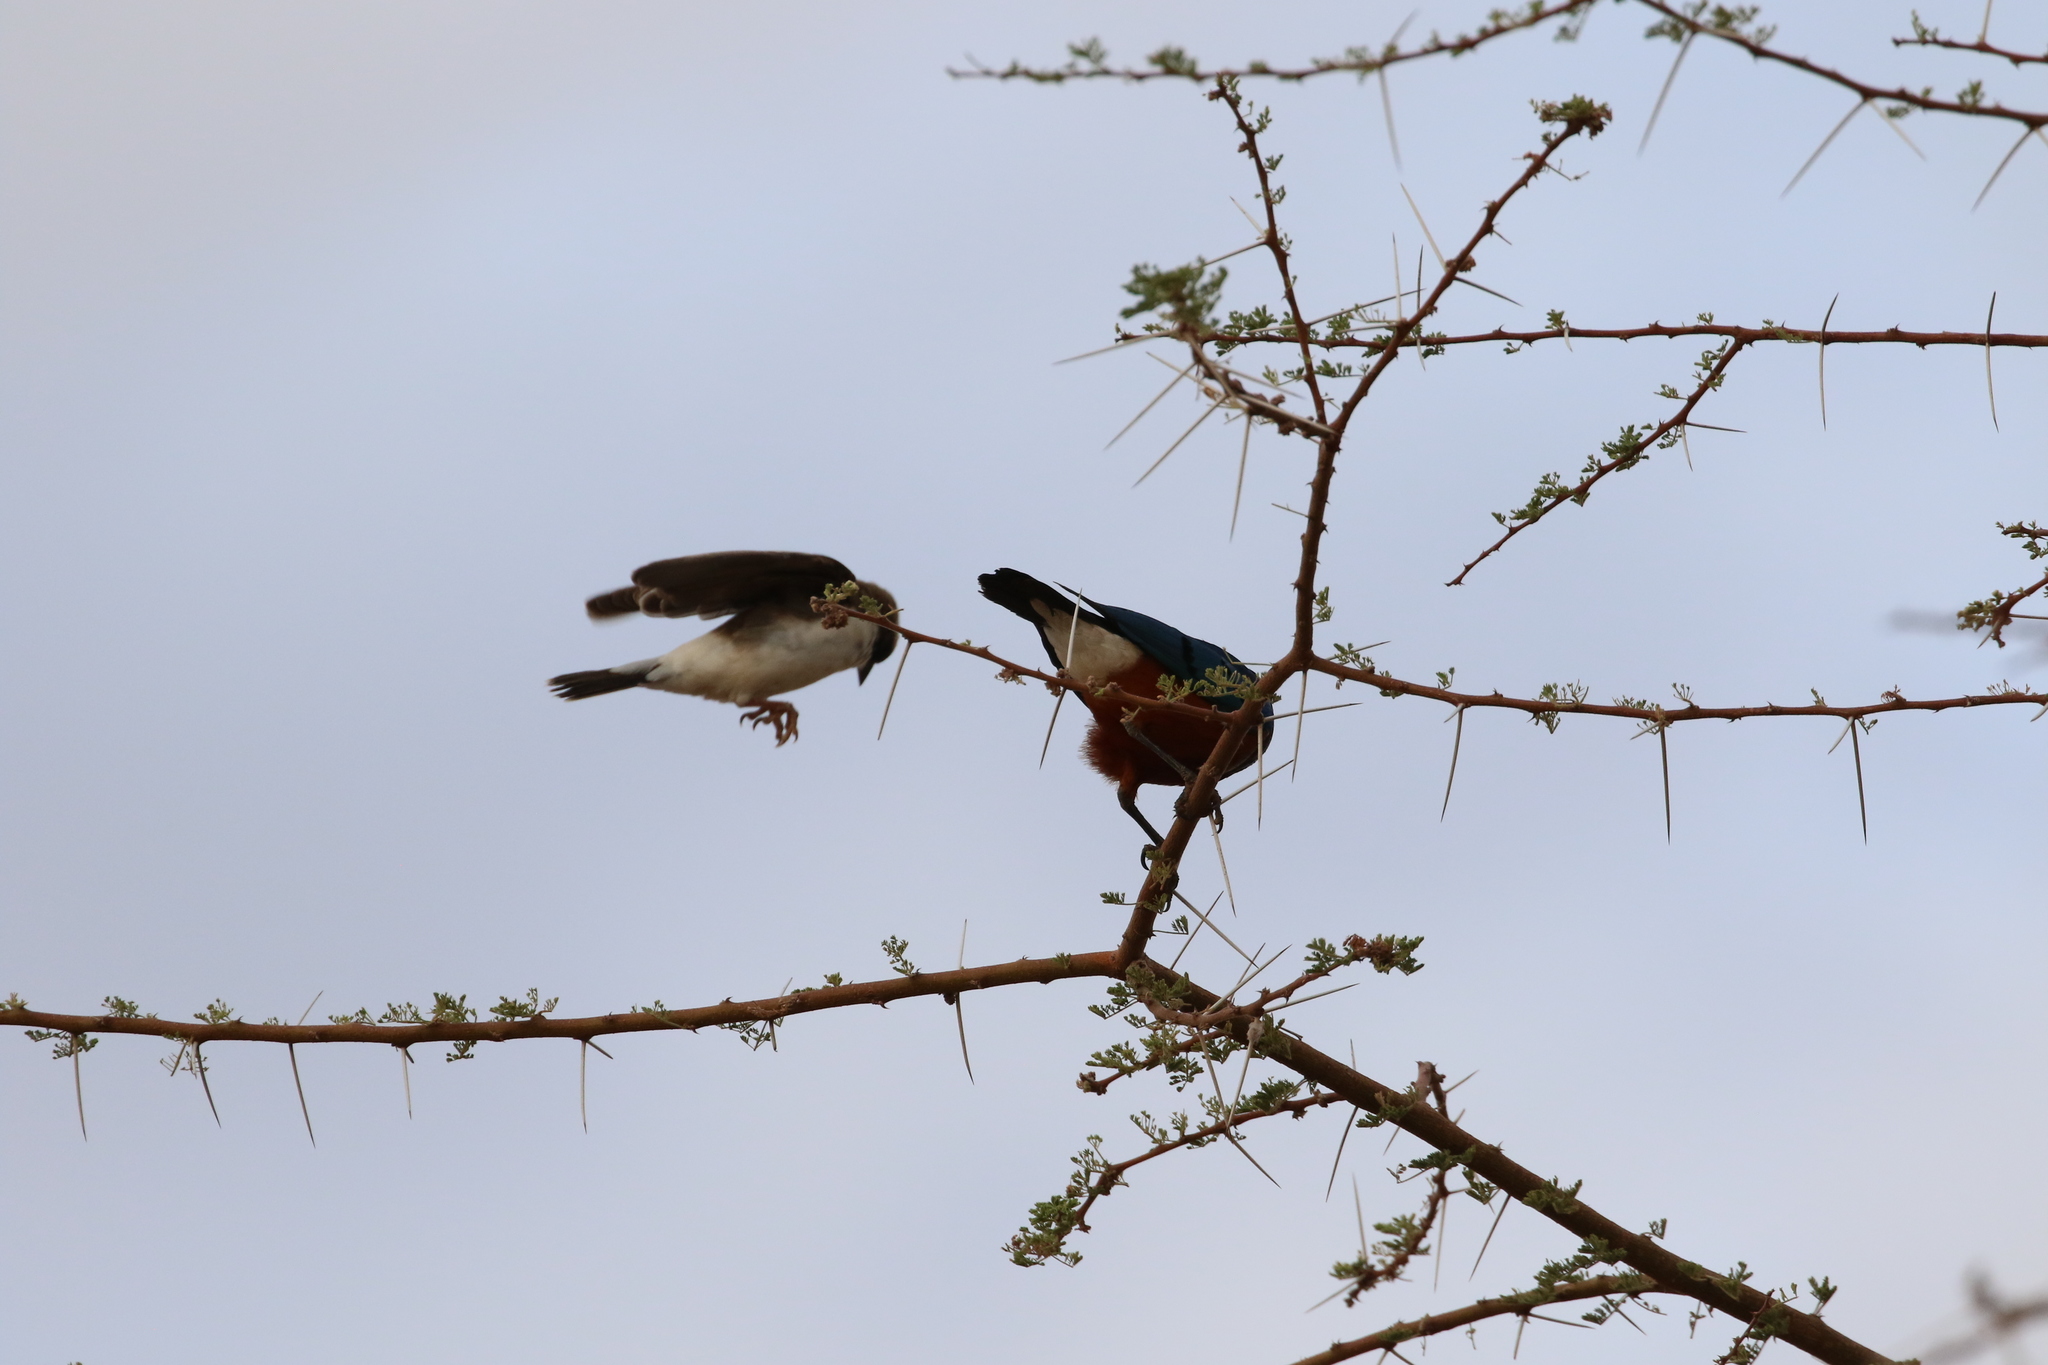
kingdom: Animalia
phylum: Chordata
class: Aves
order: Passeriformes
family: Passeridae
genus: Plocepasser
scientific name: Plocepasser mahali
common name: White-browed sparrow-weaver
